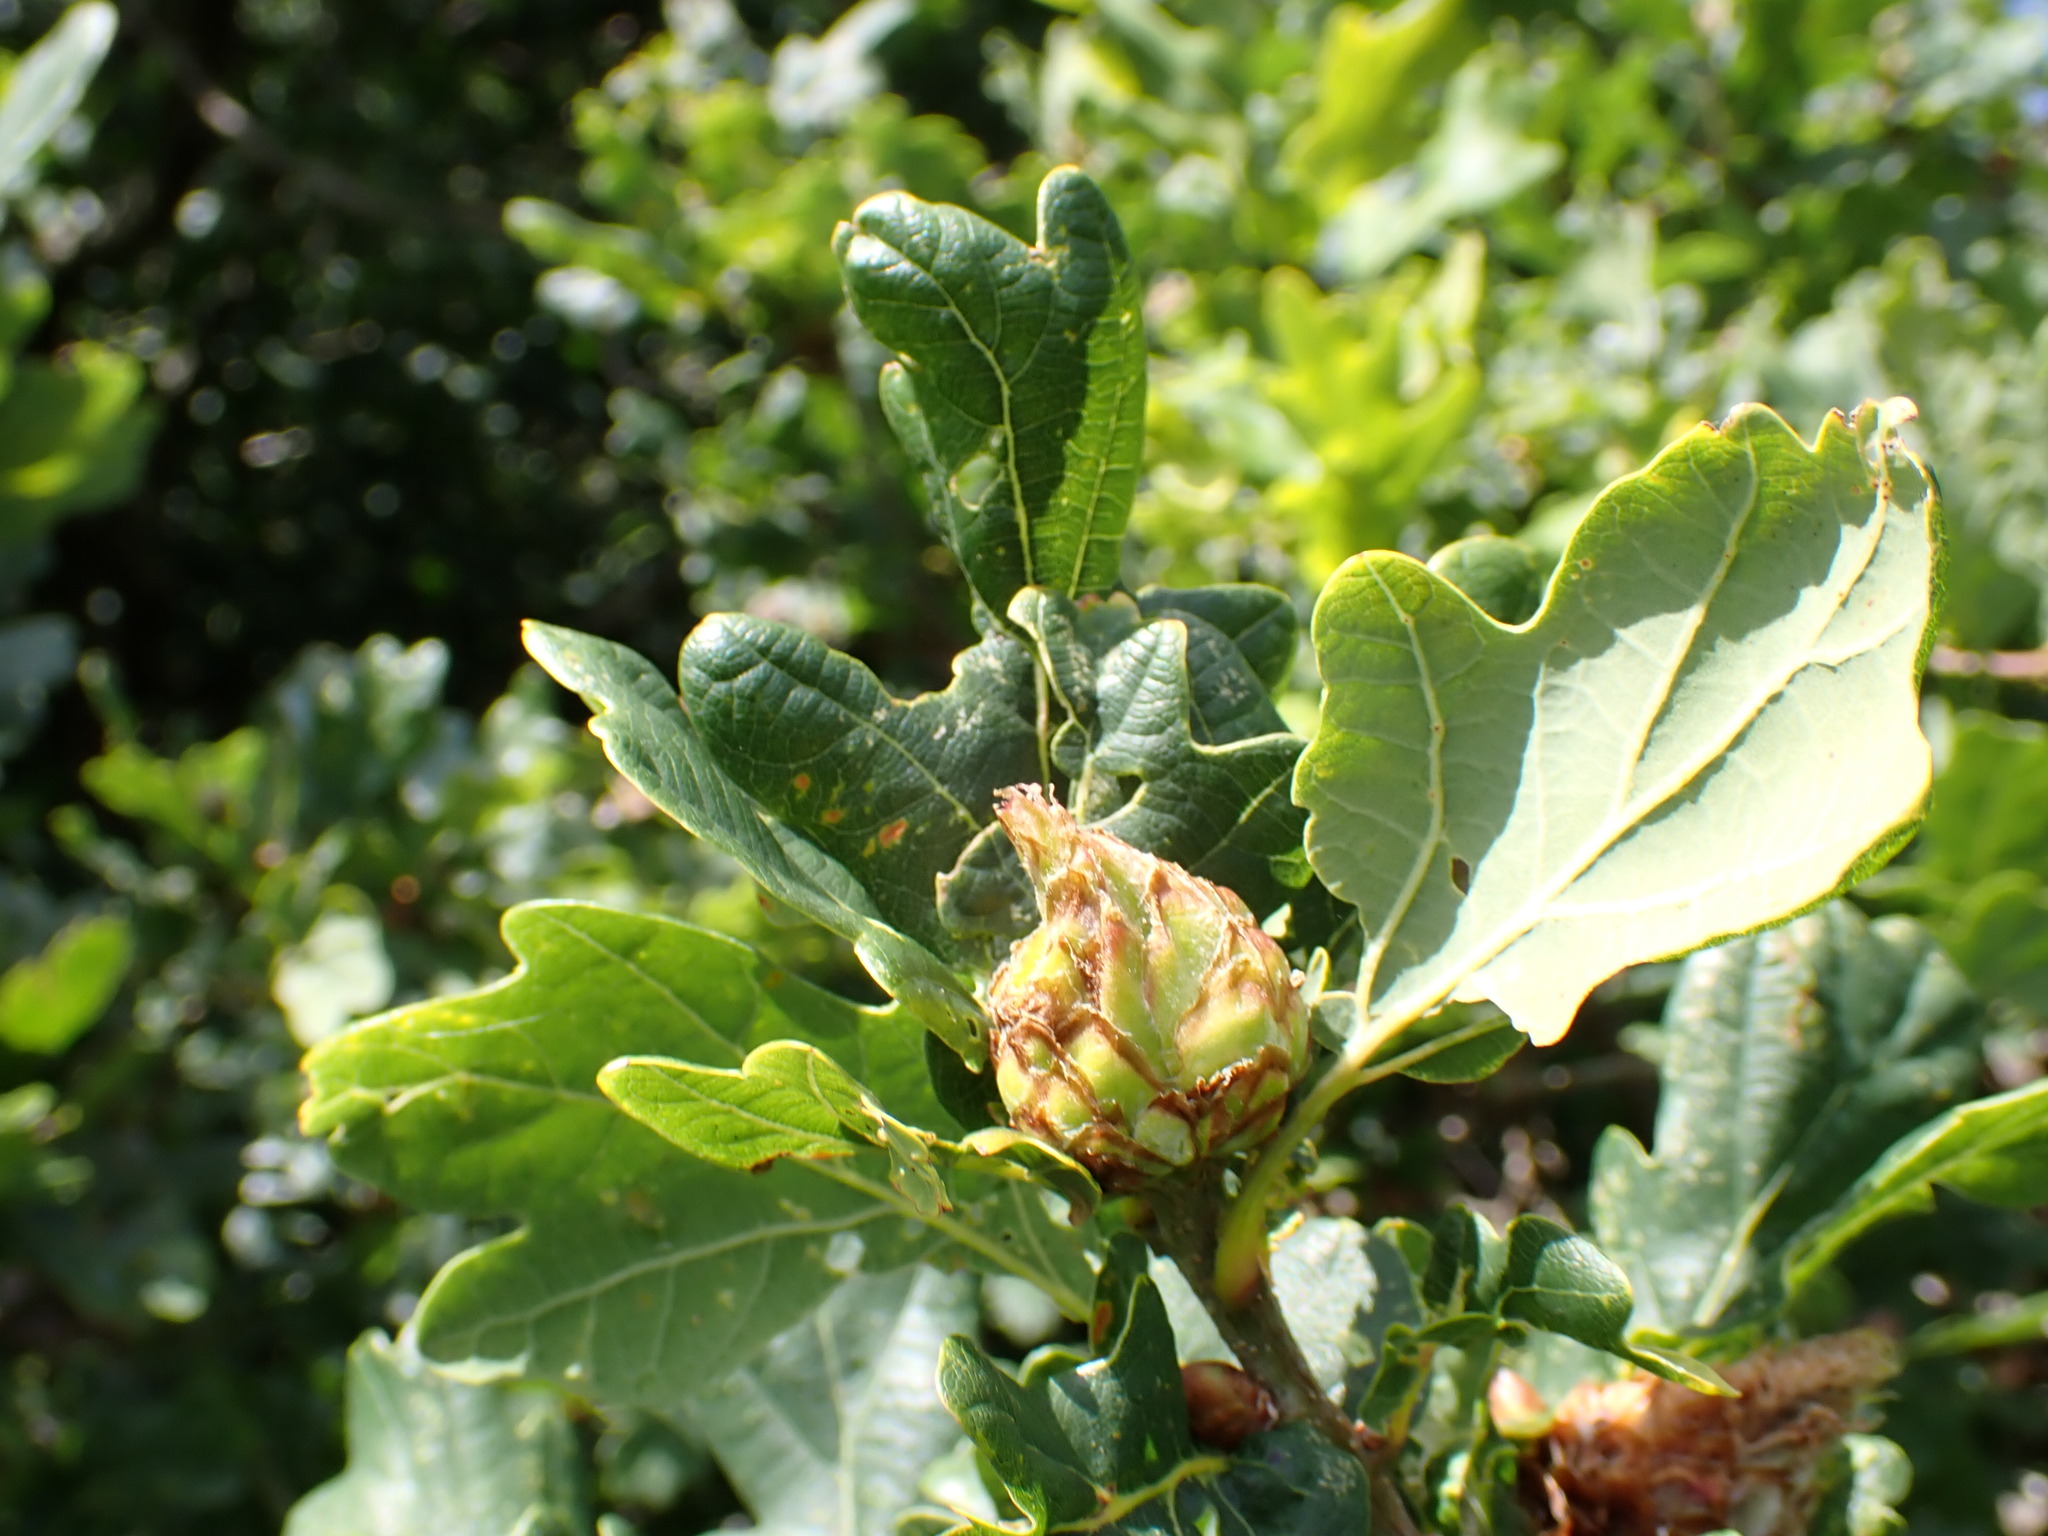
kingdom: Animalia
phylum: Arthropoda
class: Insecta
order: Hymenoptera
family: Cynipidae
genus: Andricus
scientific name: Andricus foecundatrix
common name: Artichoke gall
